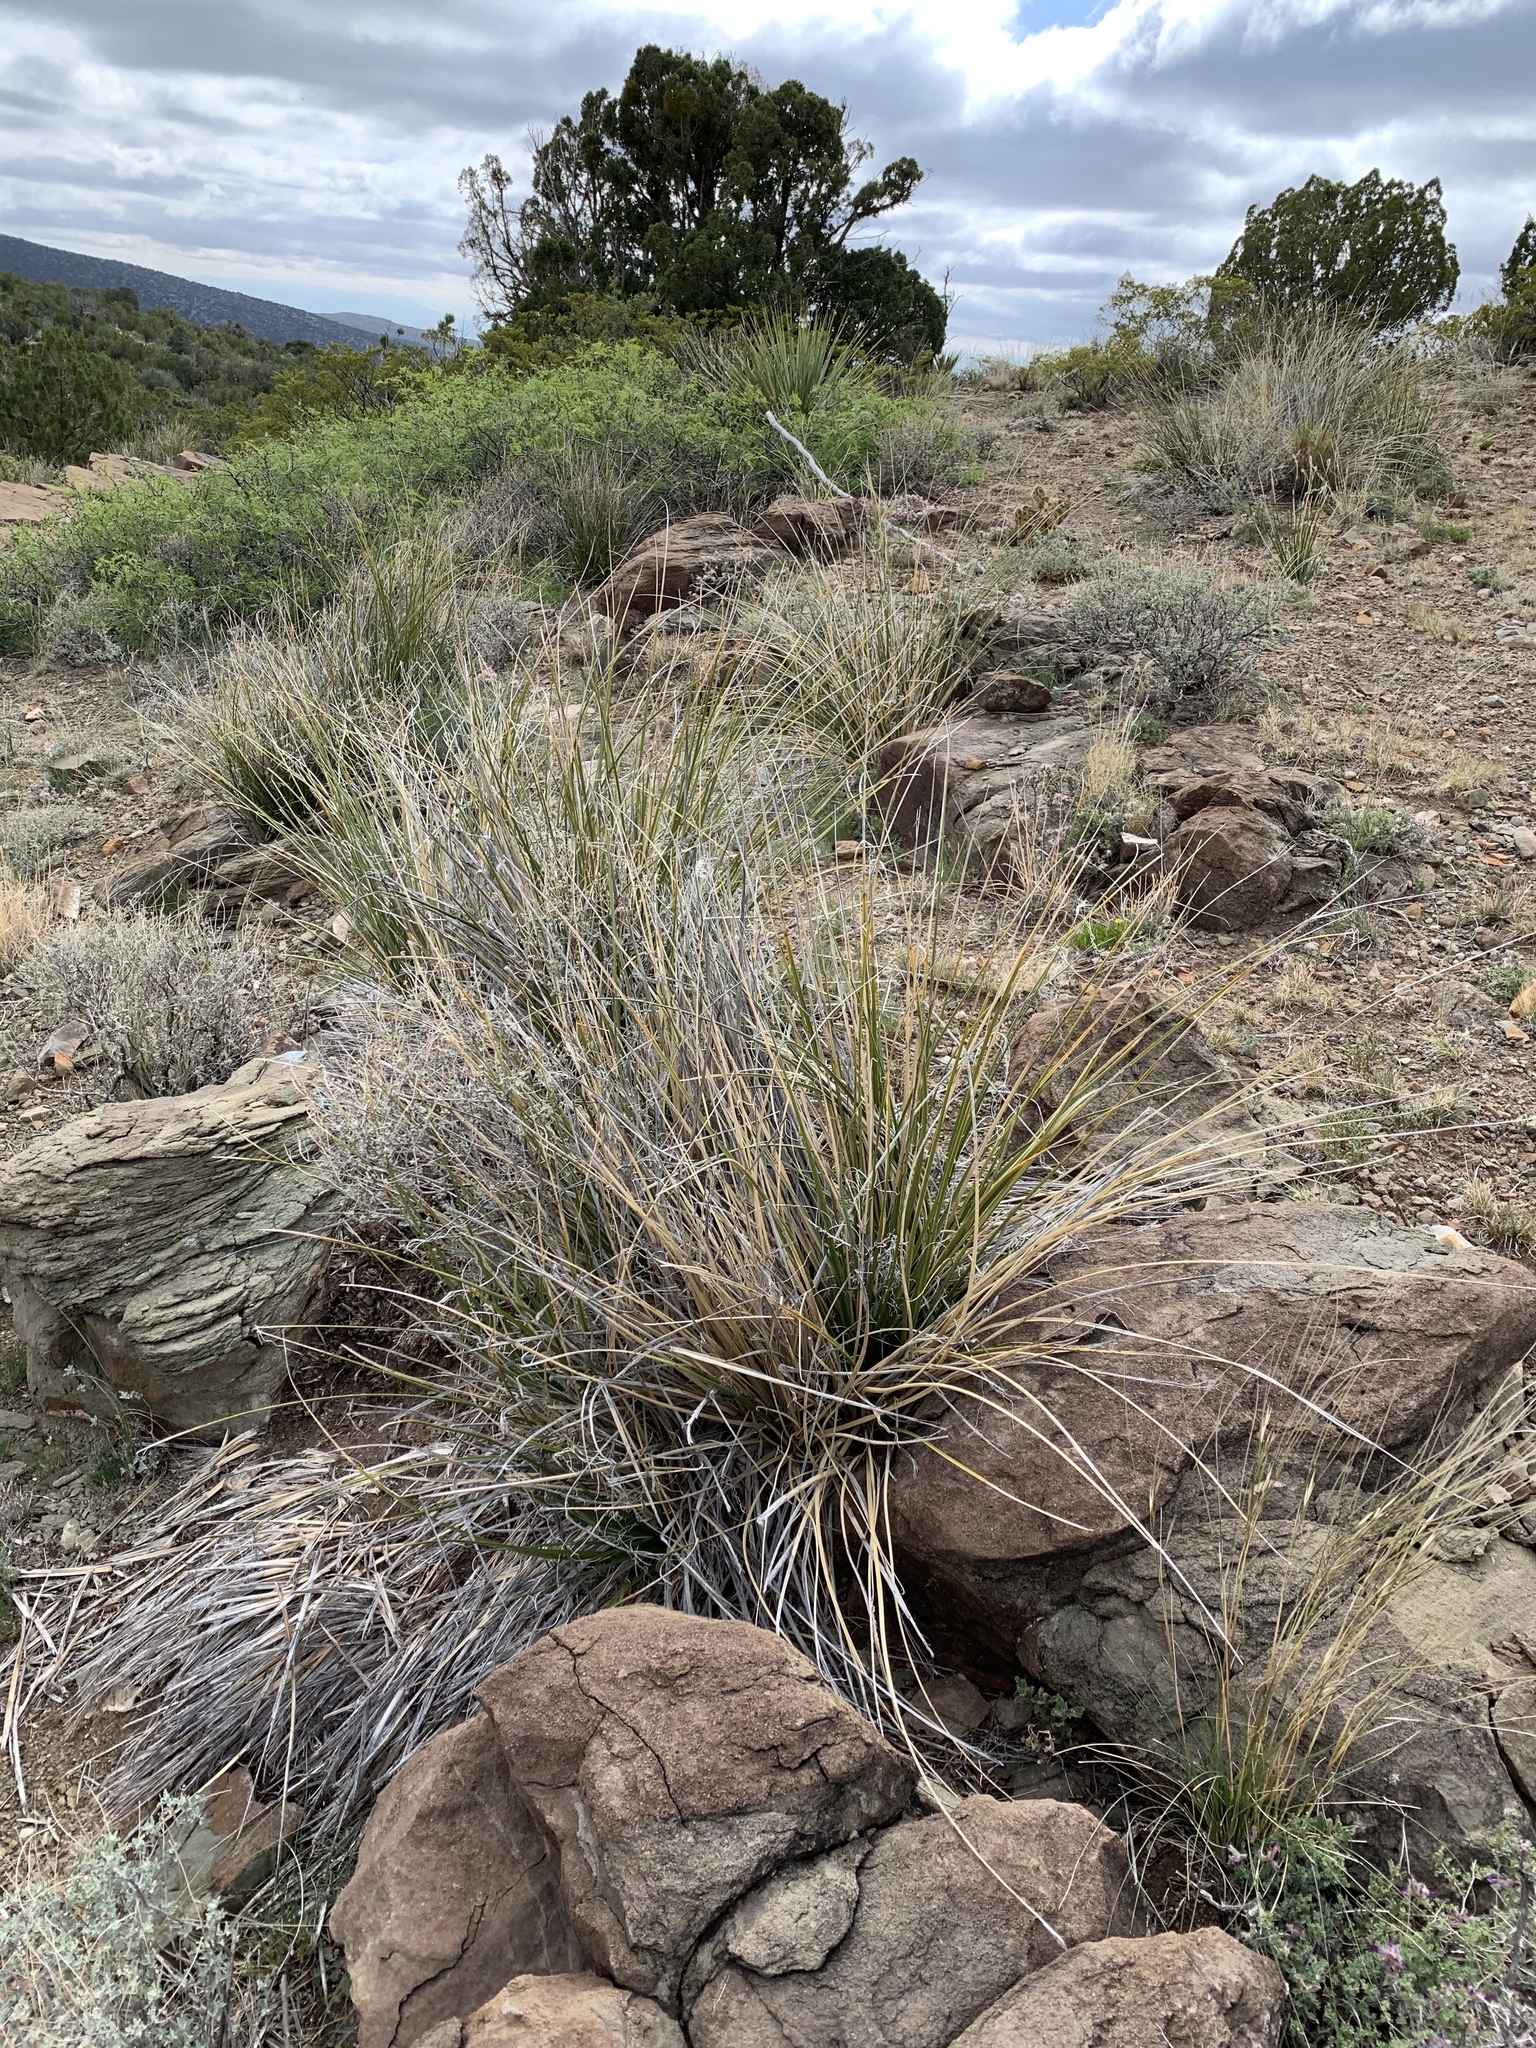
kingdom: Plantae
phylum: Tracheophyta
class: Liliopsida
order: Asparagales
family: Asparagaceae
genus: Nolina
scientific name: Nolina microcarpa
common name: Bear-grass
